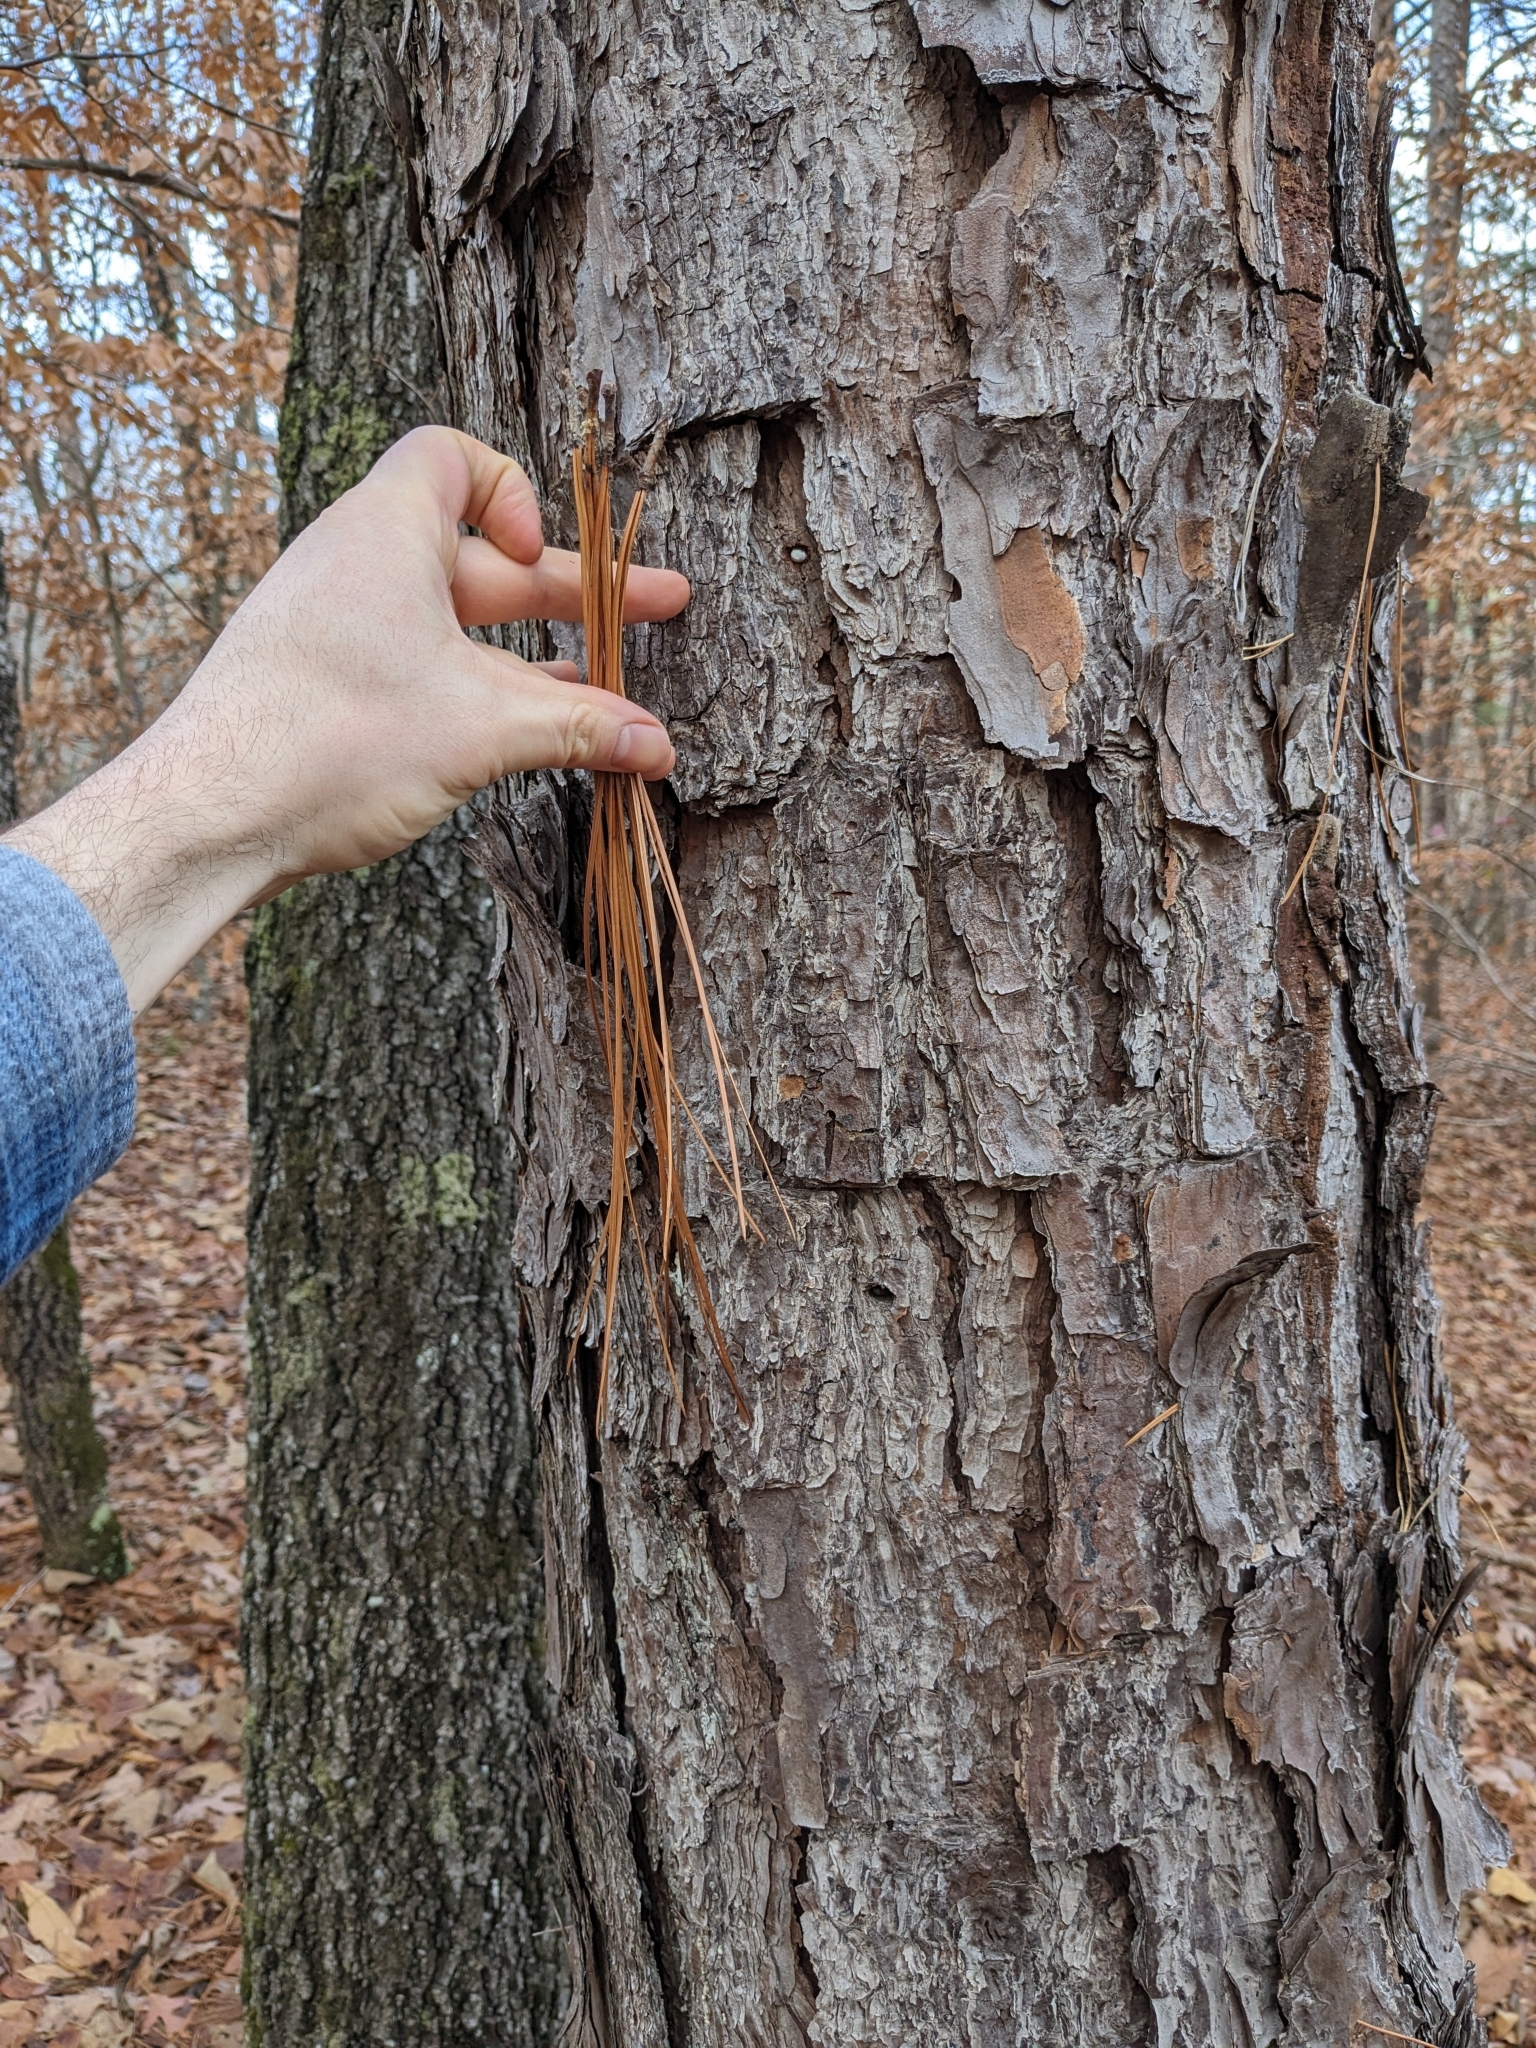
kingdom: Plantae
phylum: Tracheophyta
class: Pinopsida
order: Pinales
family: Pinaceae
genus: Pinus
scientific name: Pinus palustris
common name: Longleaf pine
